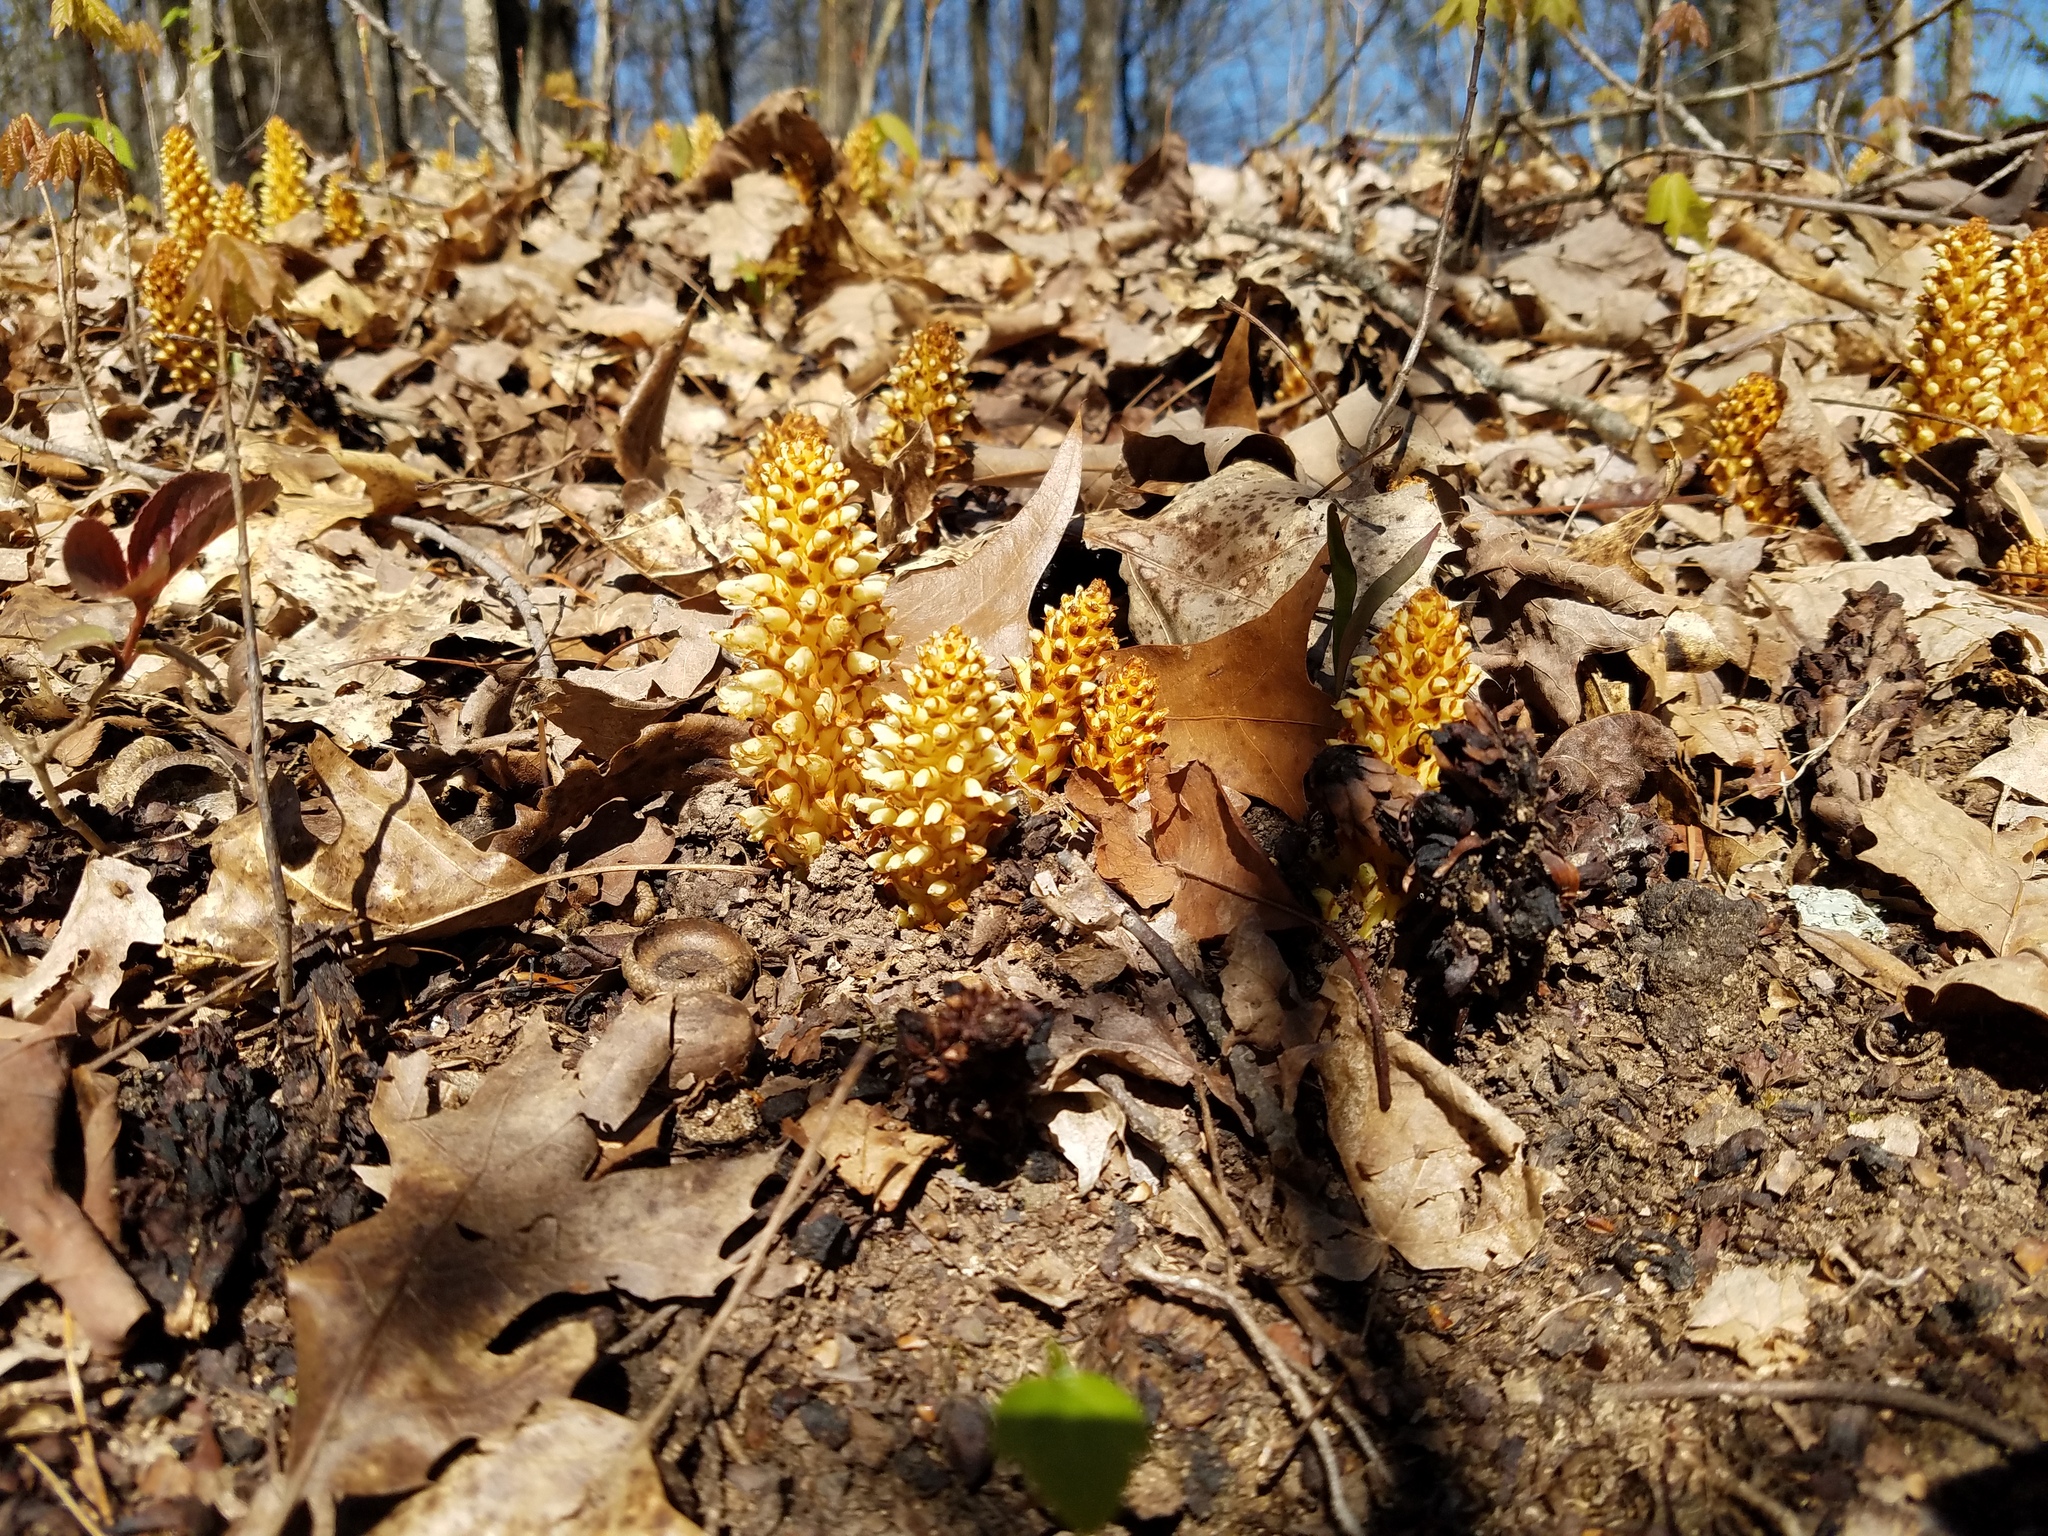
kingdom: Plantae
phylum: Tracheophyta
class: Magnoliopsida
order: Lamiales
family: Orobanchaceae
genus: Conopholis
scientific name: Conopholis americana
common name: American cancer-root
